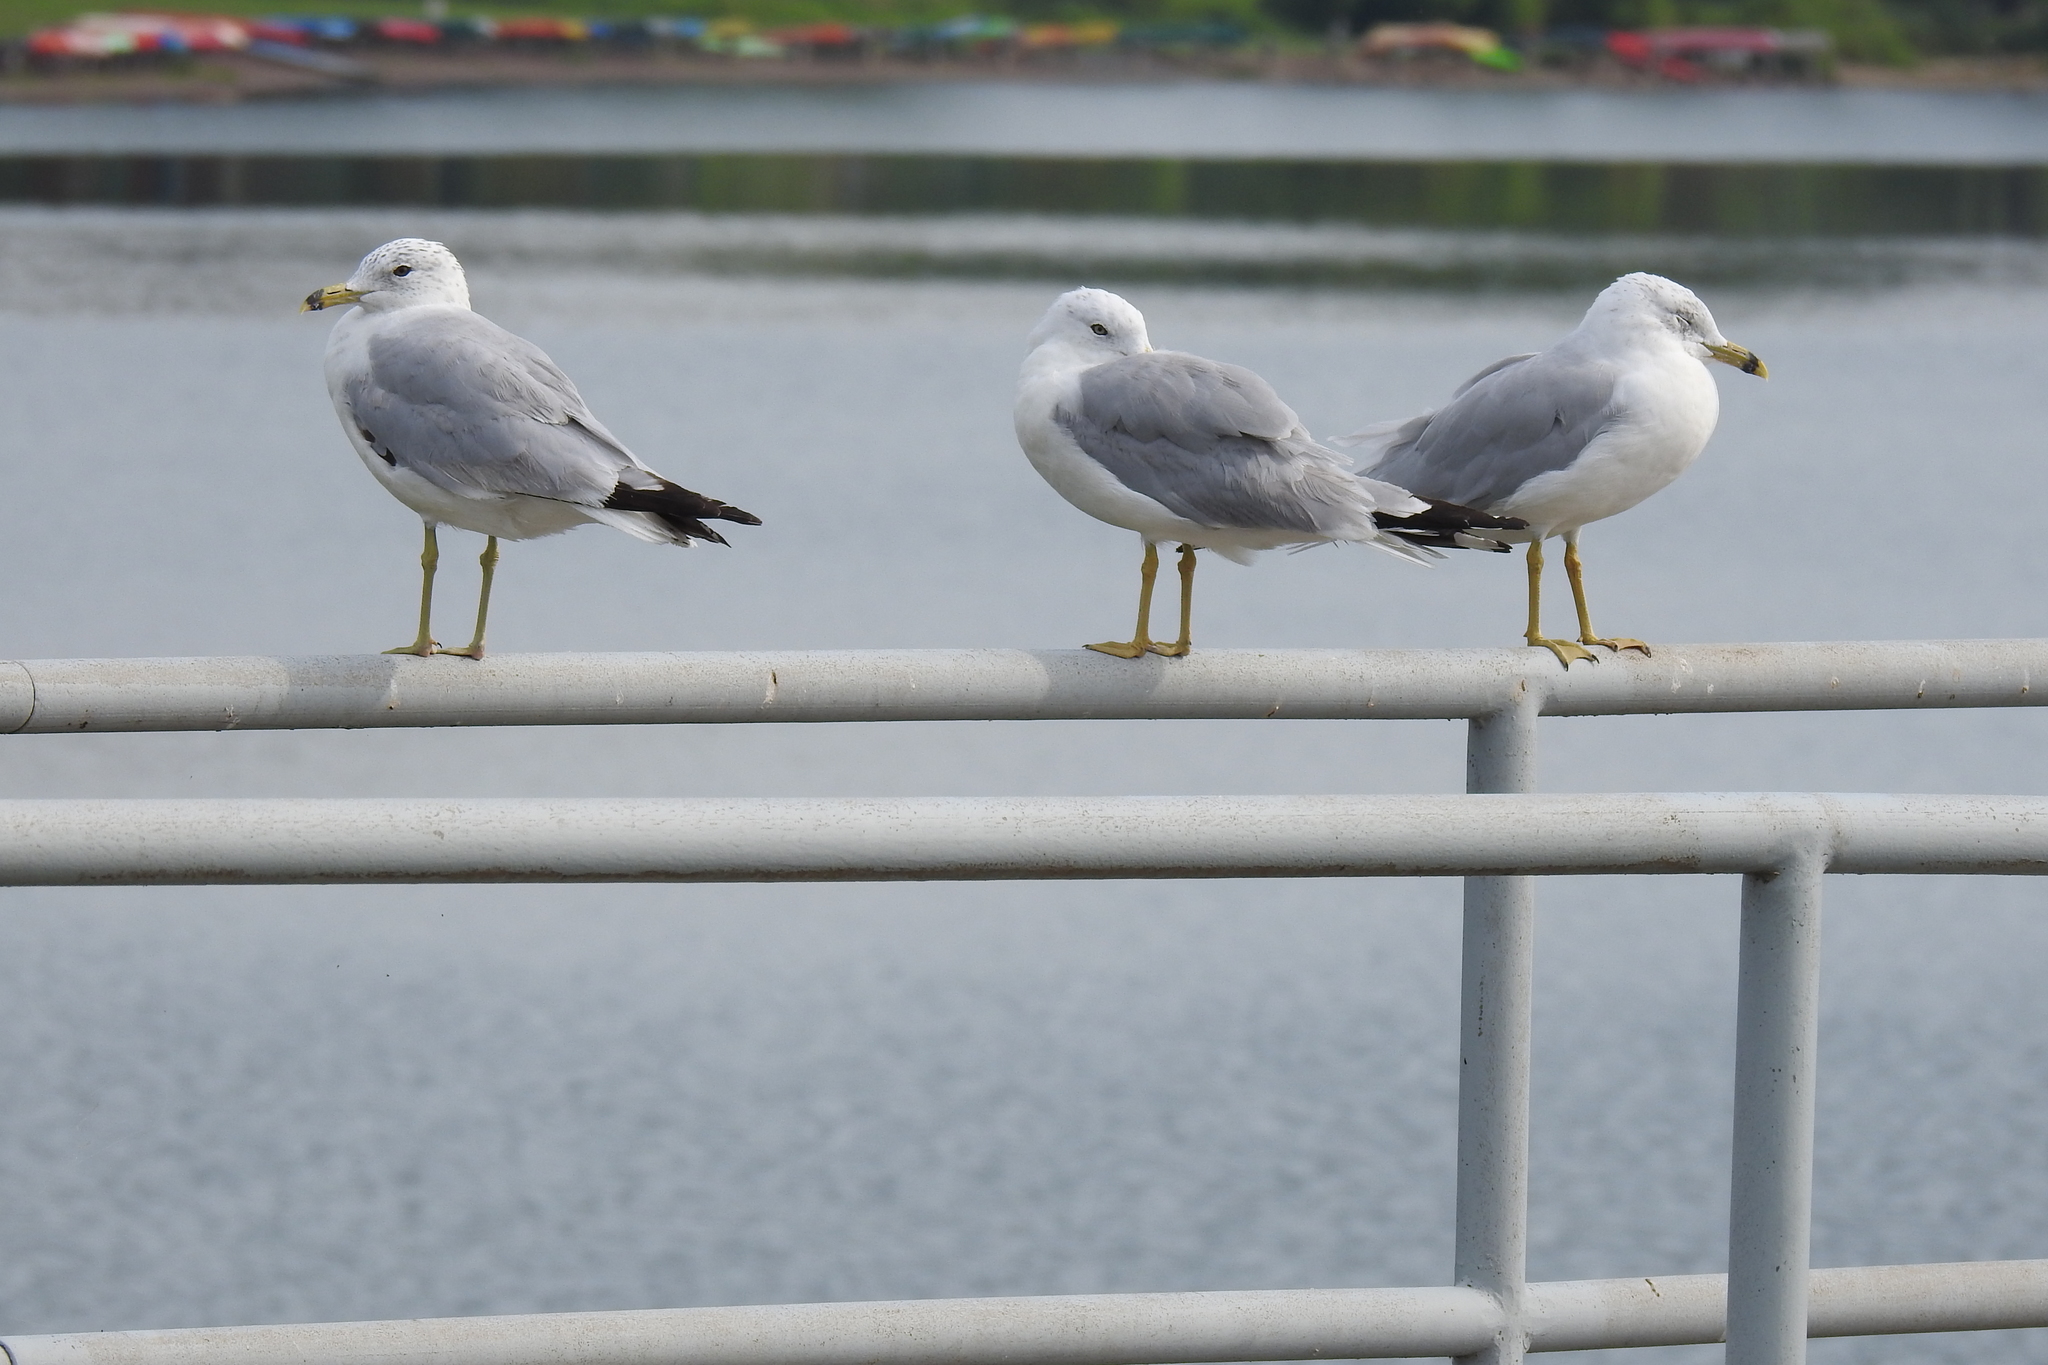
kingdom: Animalia
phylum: Chordata
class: Aves
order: Charadriiformes
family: Laridae
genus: Larus
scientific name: Larus delawarensis
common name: Ring-billed gull
